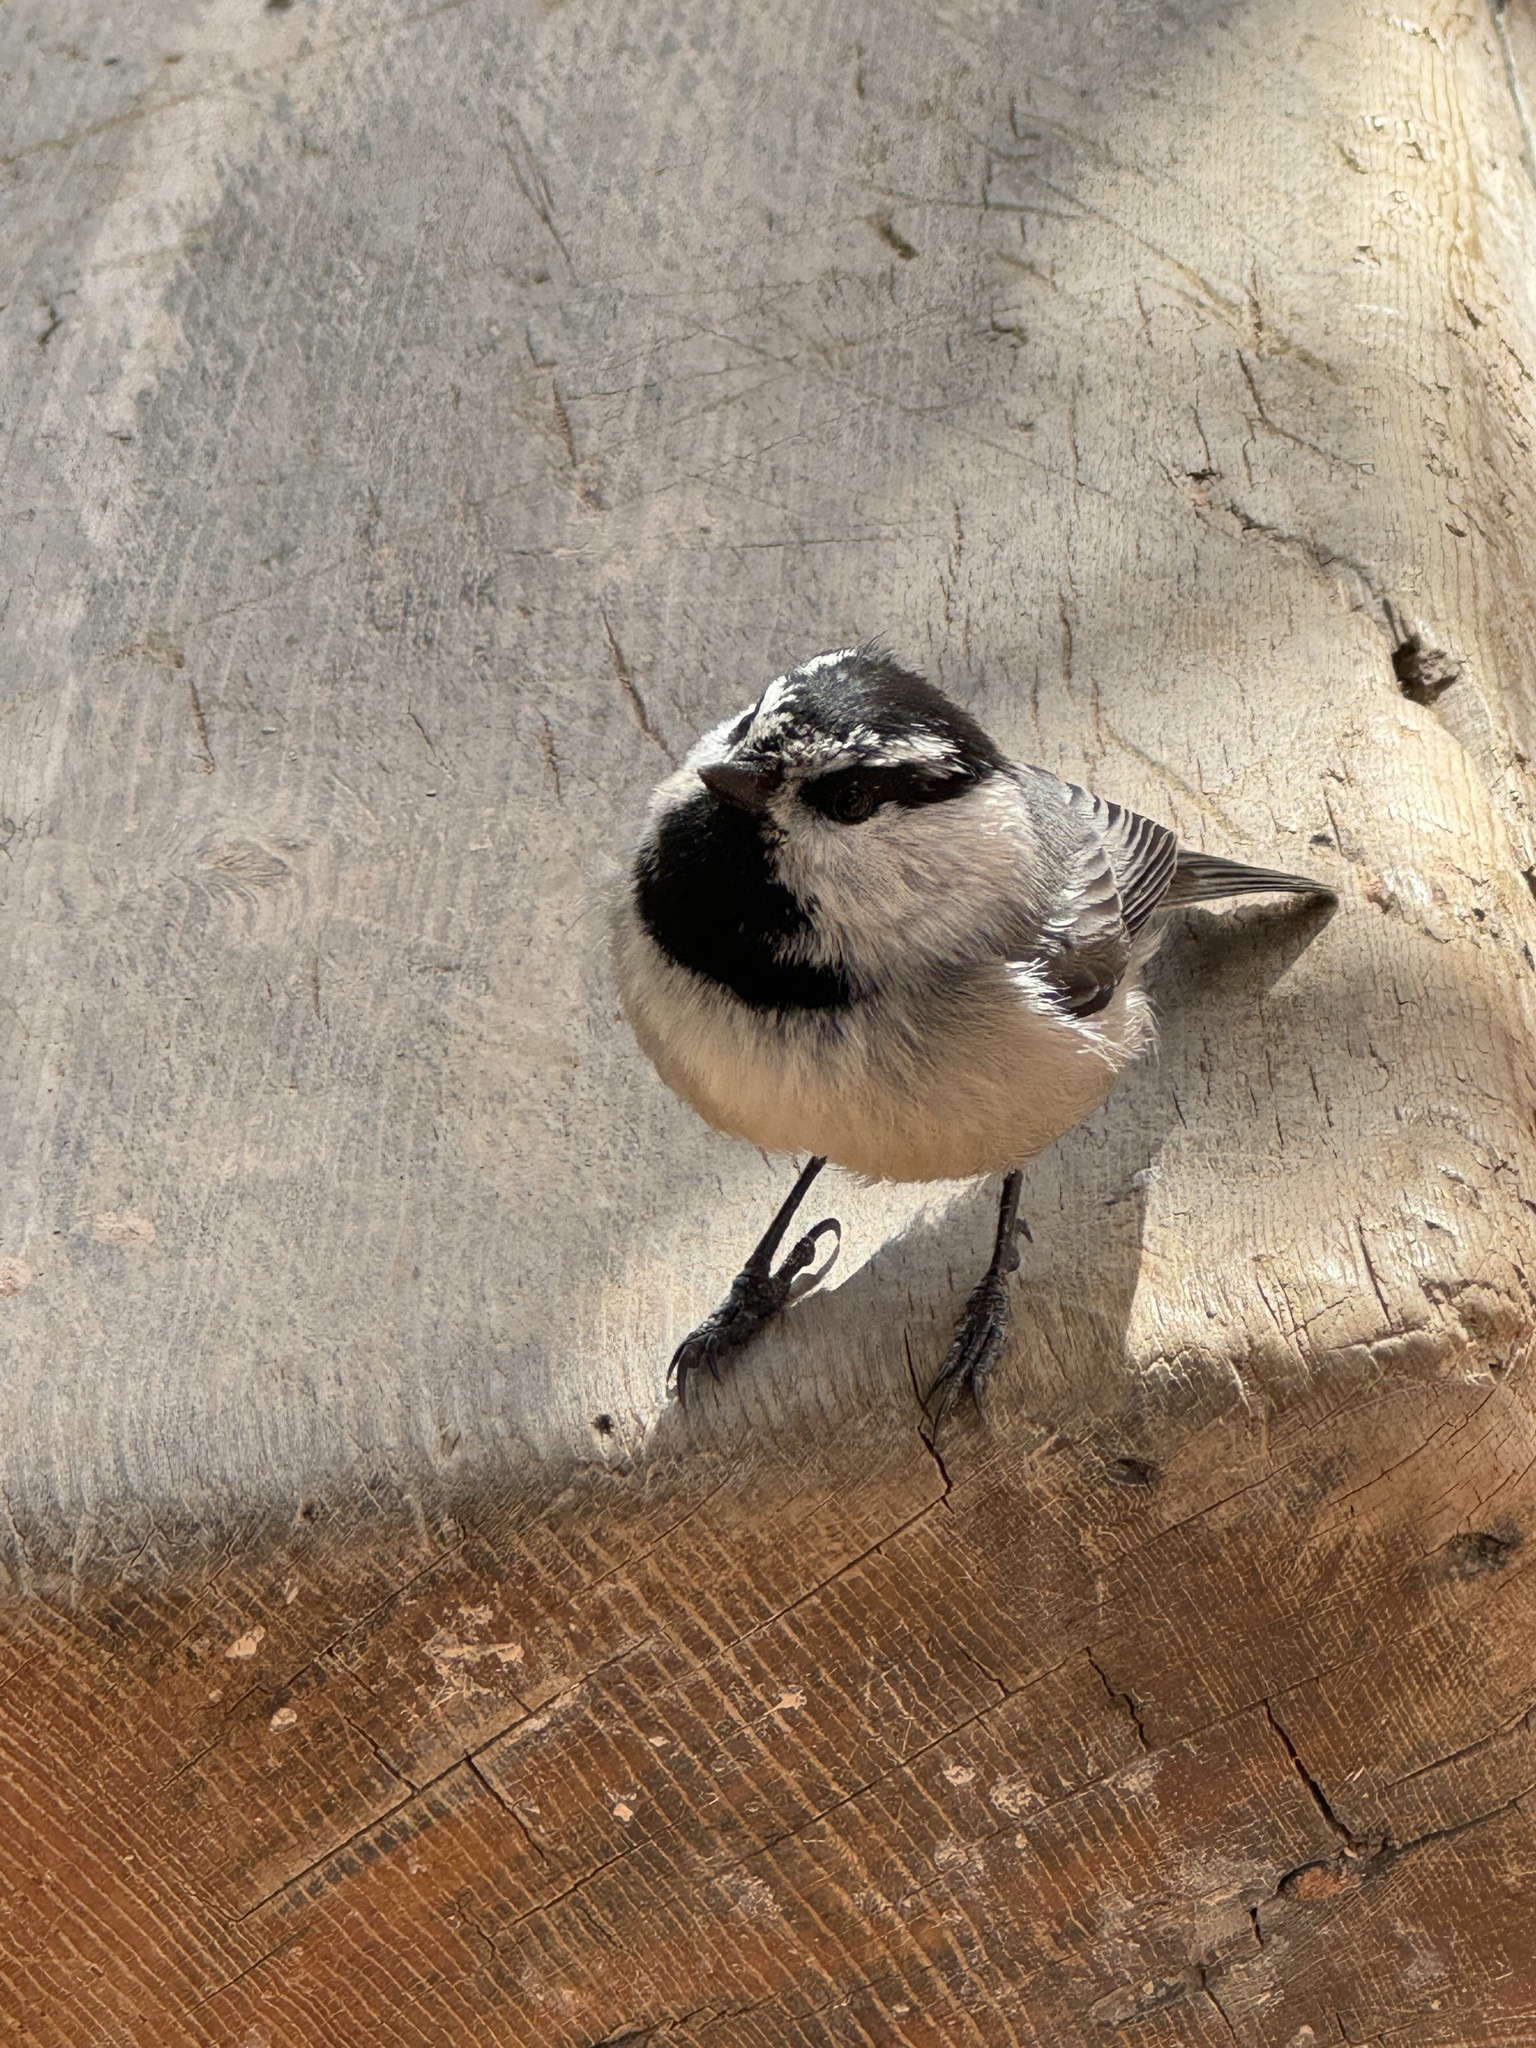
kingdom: Animalia
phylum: Chordata
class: Aves
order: Passeriformes
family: Paridae
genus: Poecile
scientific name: Poecile gambeli
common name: Mountain chickadee
